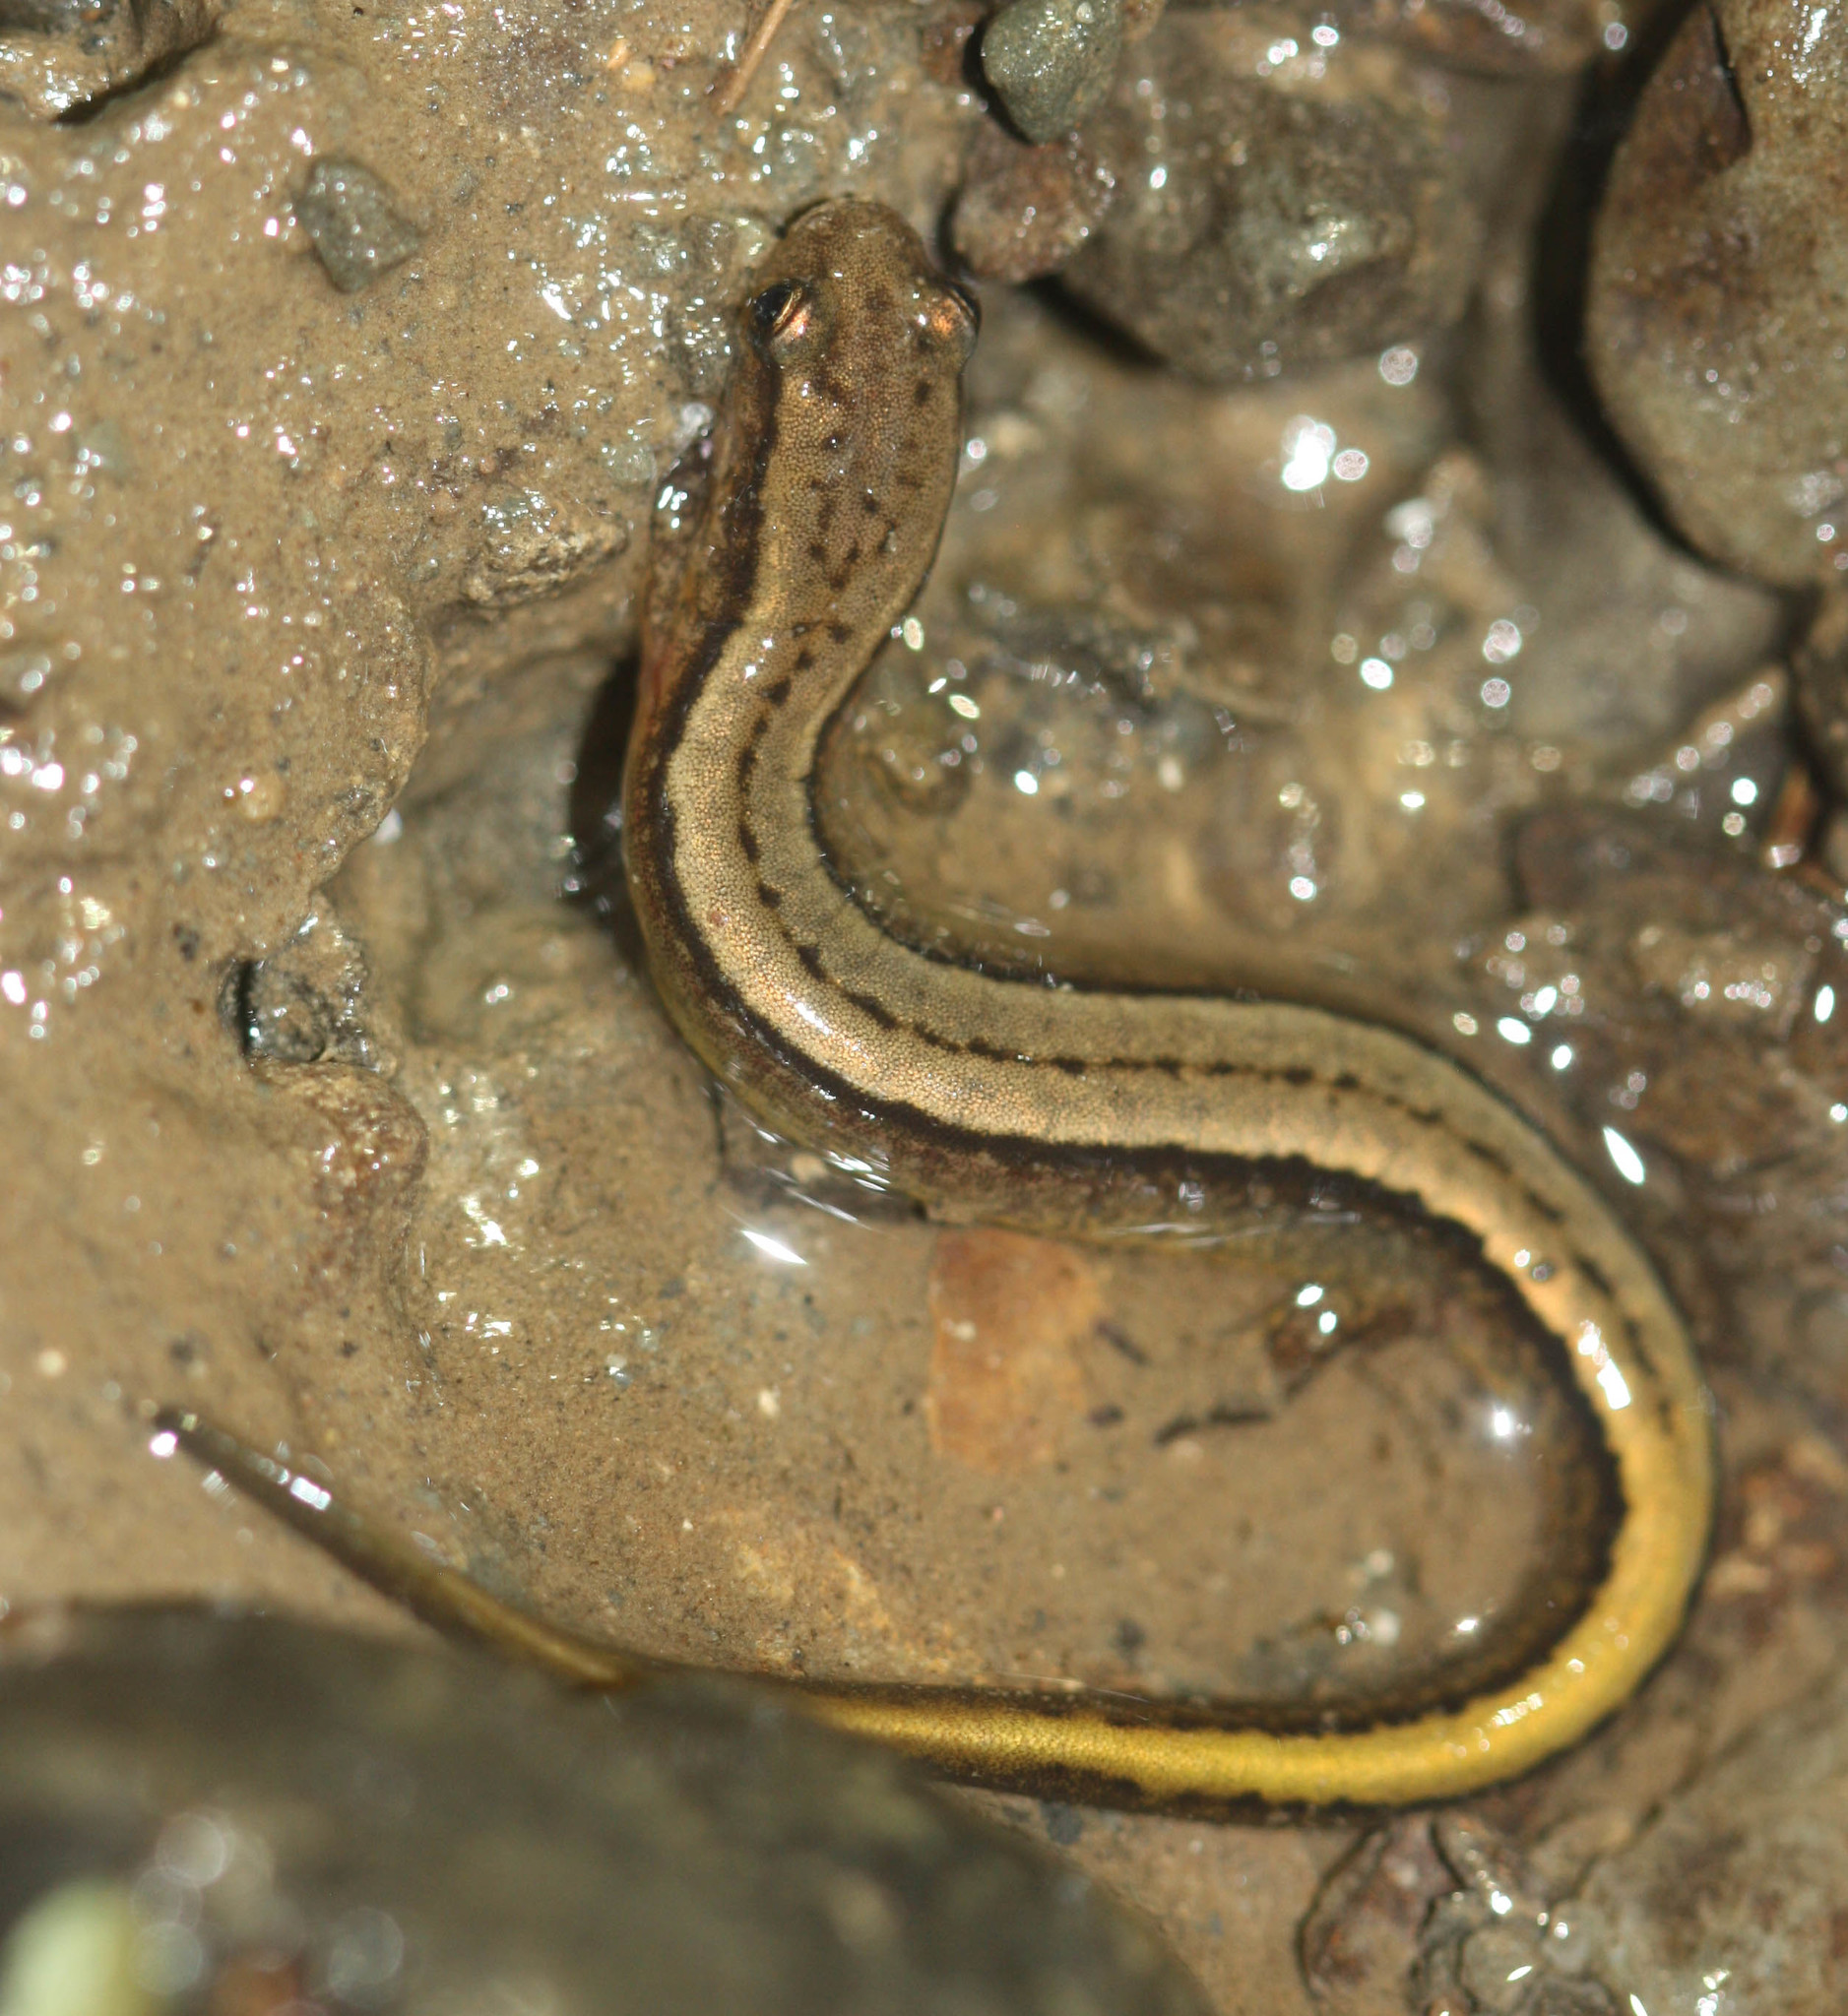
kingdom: Animalia
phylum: Chordata
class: Amphibia
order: Caudata
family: Plethodontidae
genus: Eurycea
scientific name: Eurycea bislineata
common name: Northern two-lined salamander
